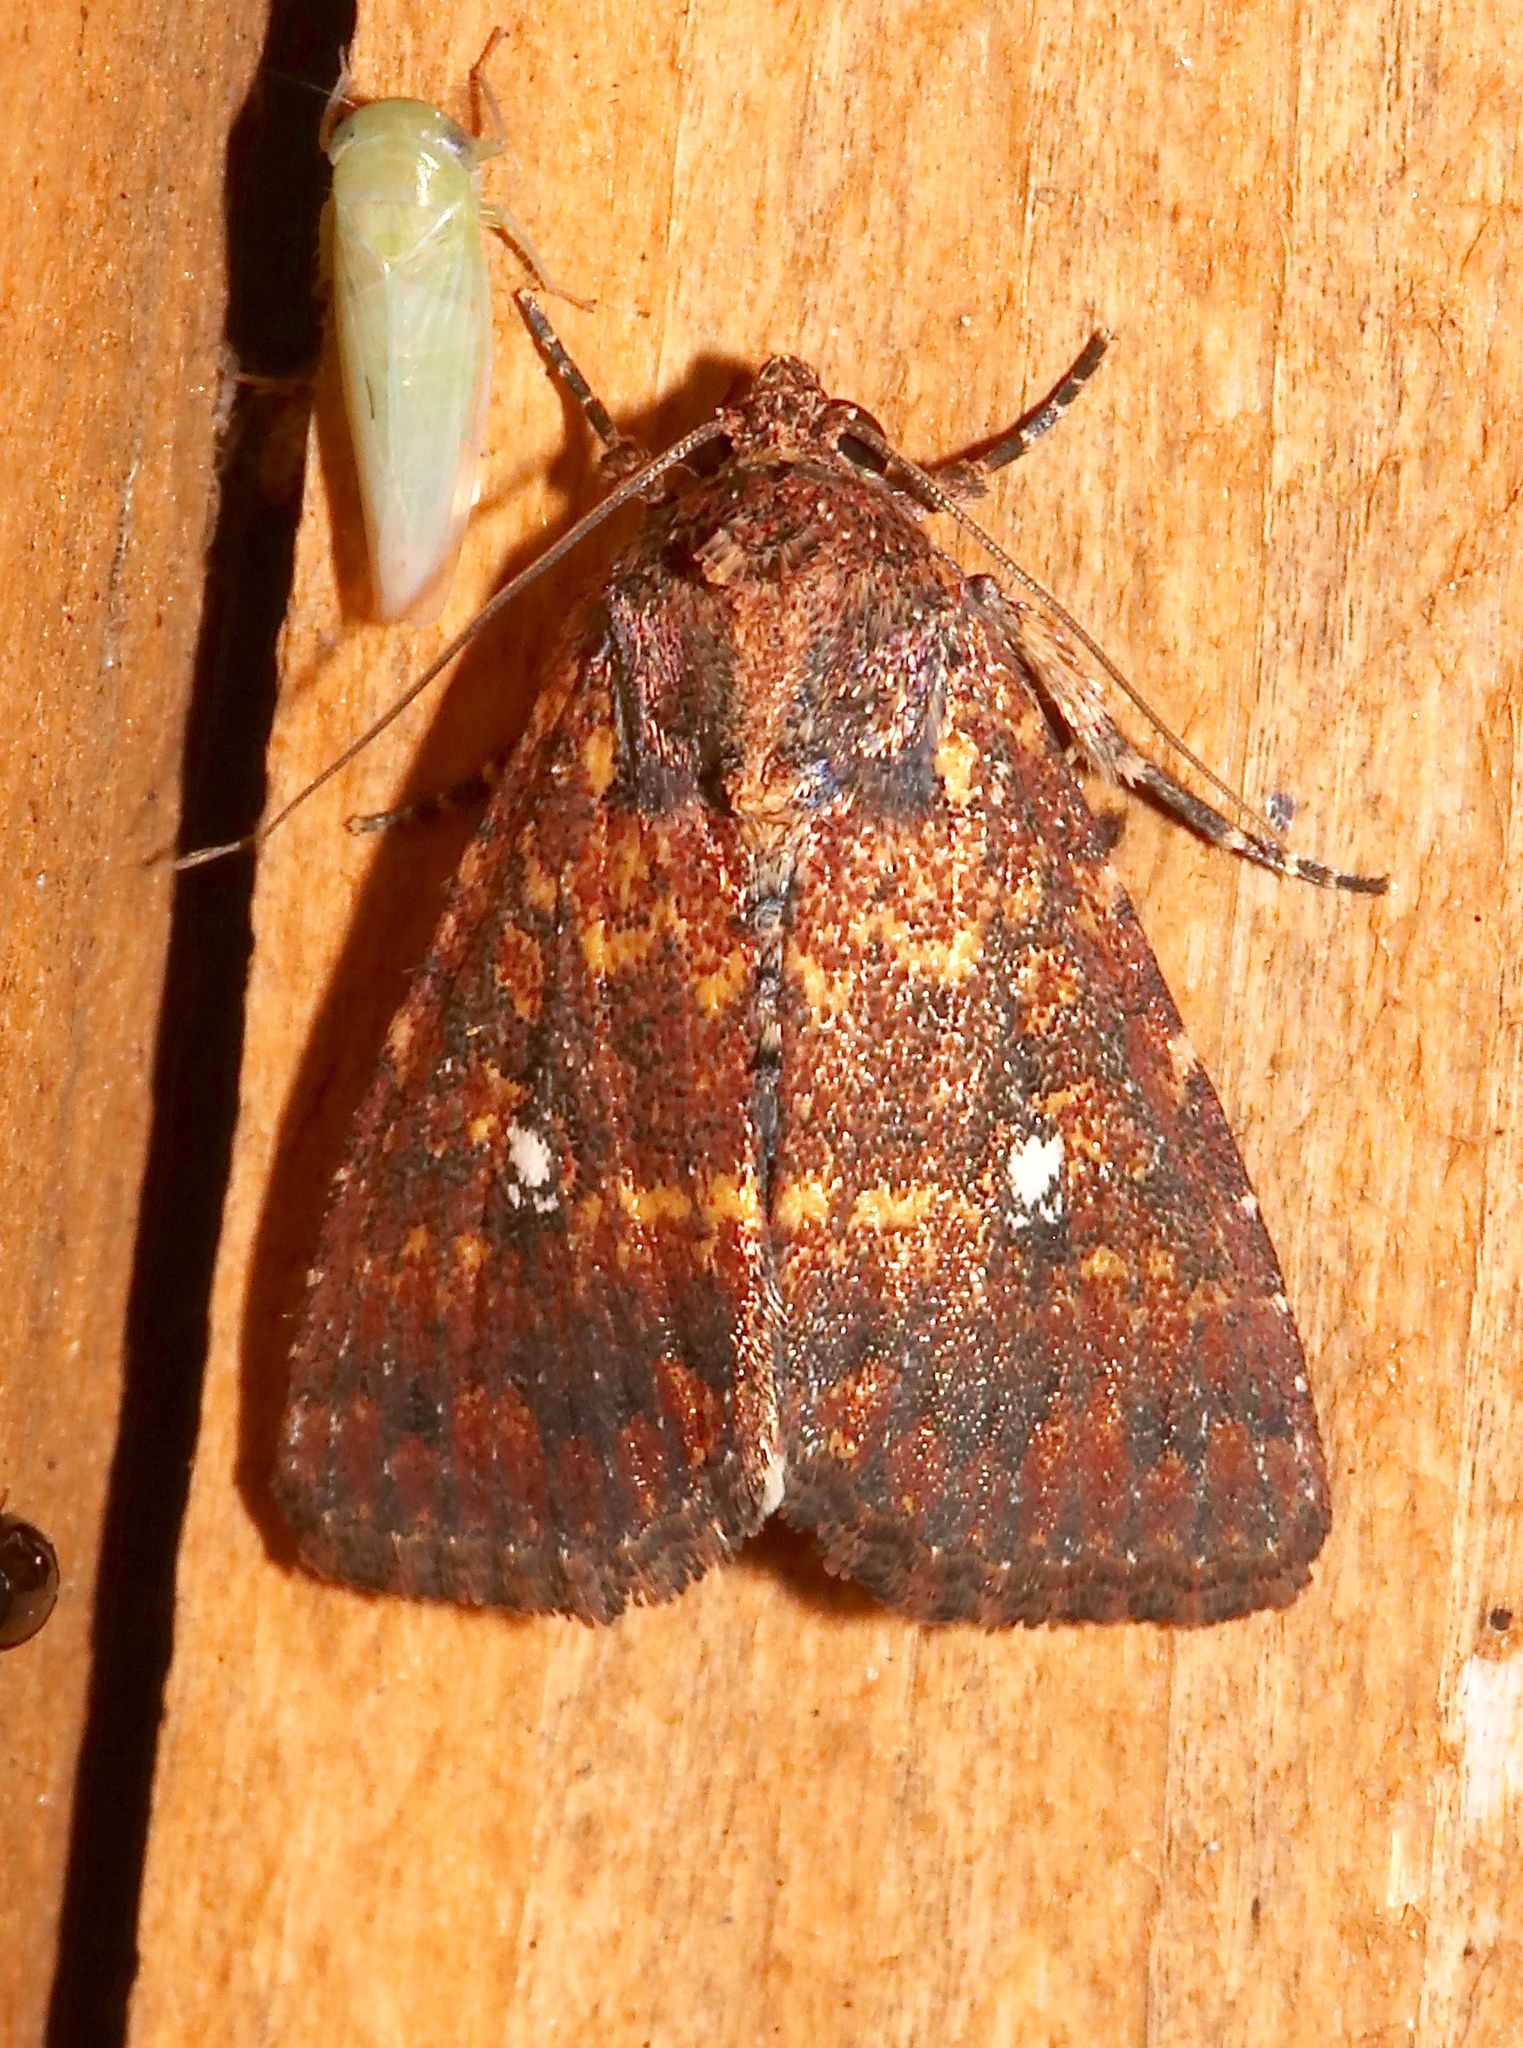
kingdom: Animalia
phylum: Arthropoda
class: Insecta
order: Lepidoptera
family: Noctuidae
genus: Condica
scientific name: Condica mobilis
